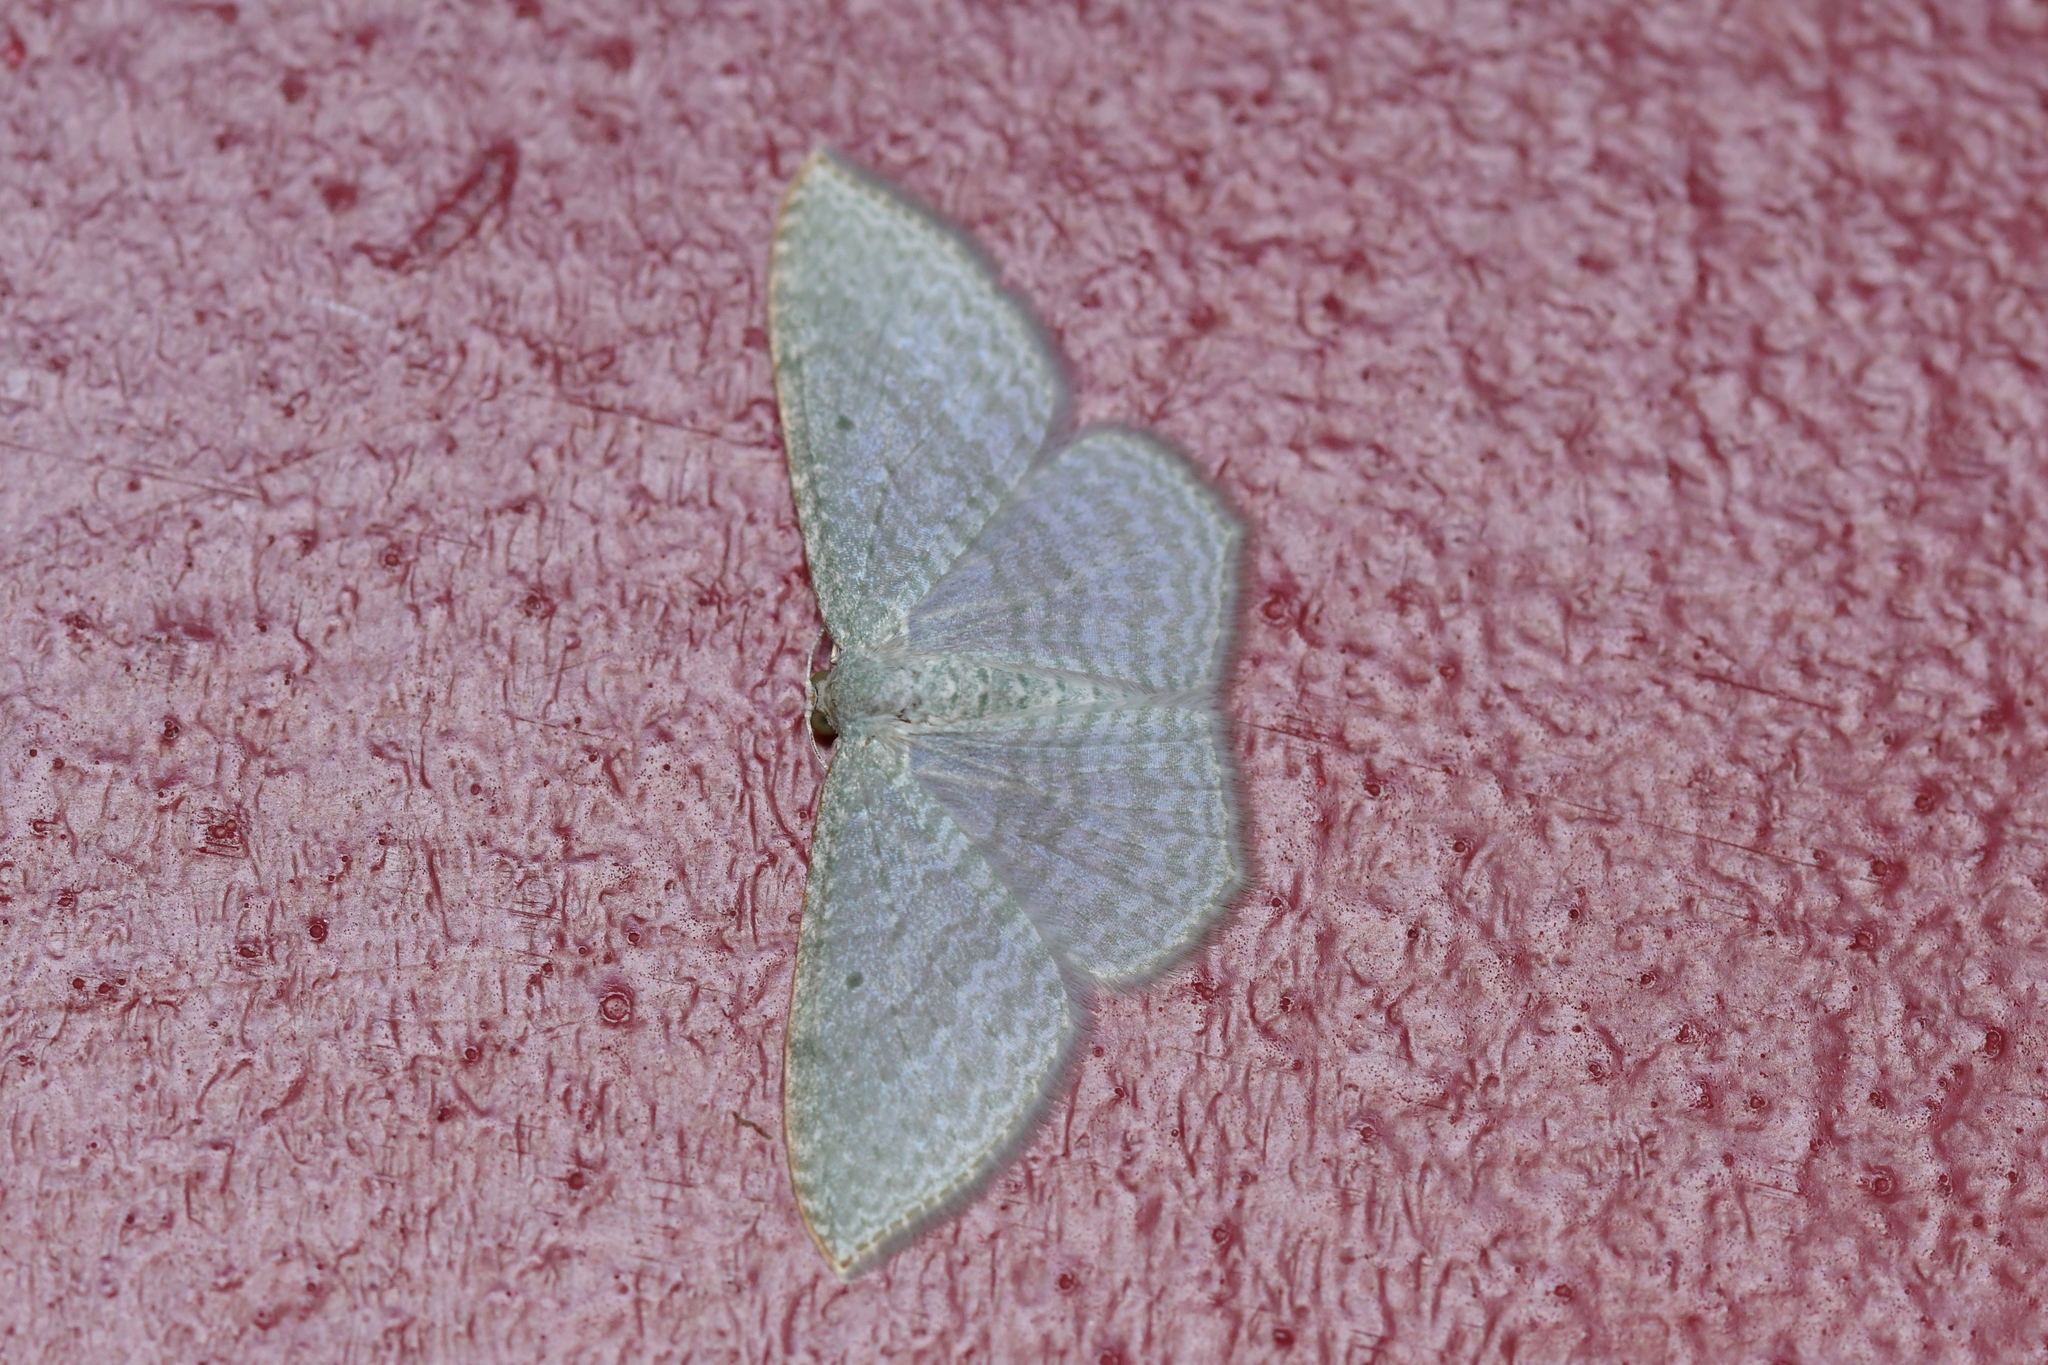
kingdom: Animalia
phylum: Arthropoda
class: Insecta
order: Lepidoptera
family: Geometridae
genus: Poecilasthena
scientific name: Poecilasthena pulchraria
